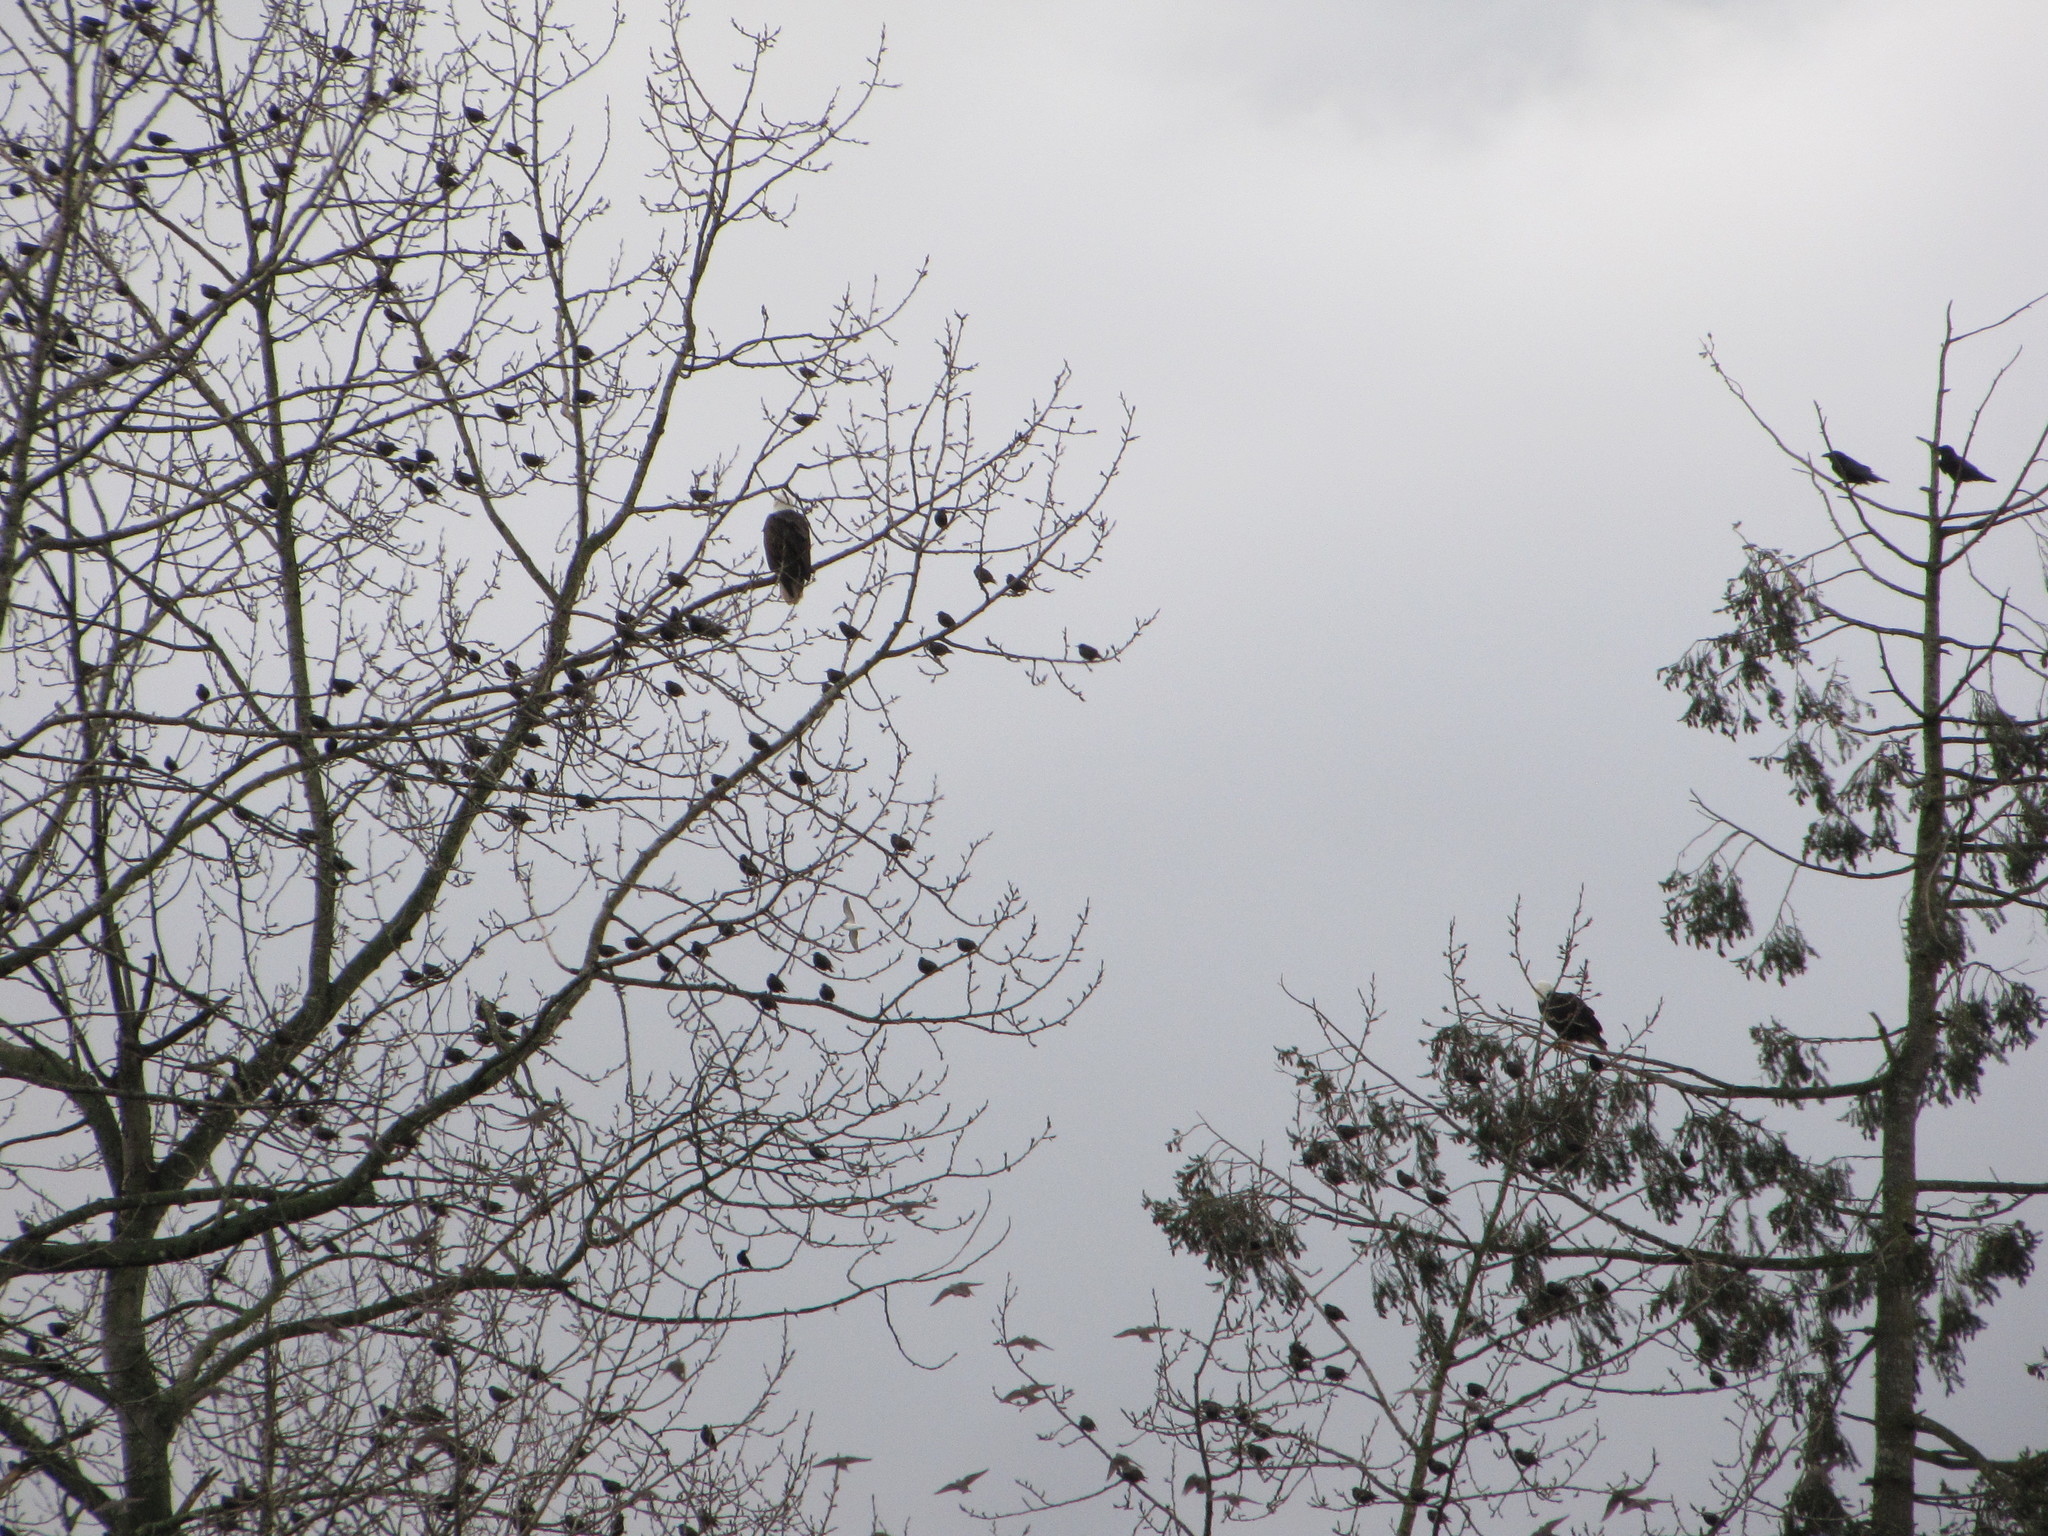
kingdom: Animalia
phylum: Chordata
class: Aves
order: Accipitriformes
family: Accipitridae
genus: Haliaeetus
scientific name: Haliaeetus leucocephalus
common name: Bald eagle
